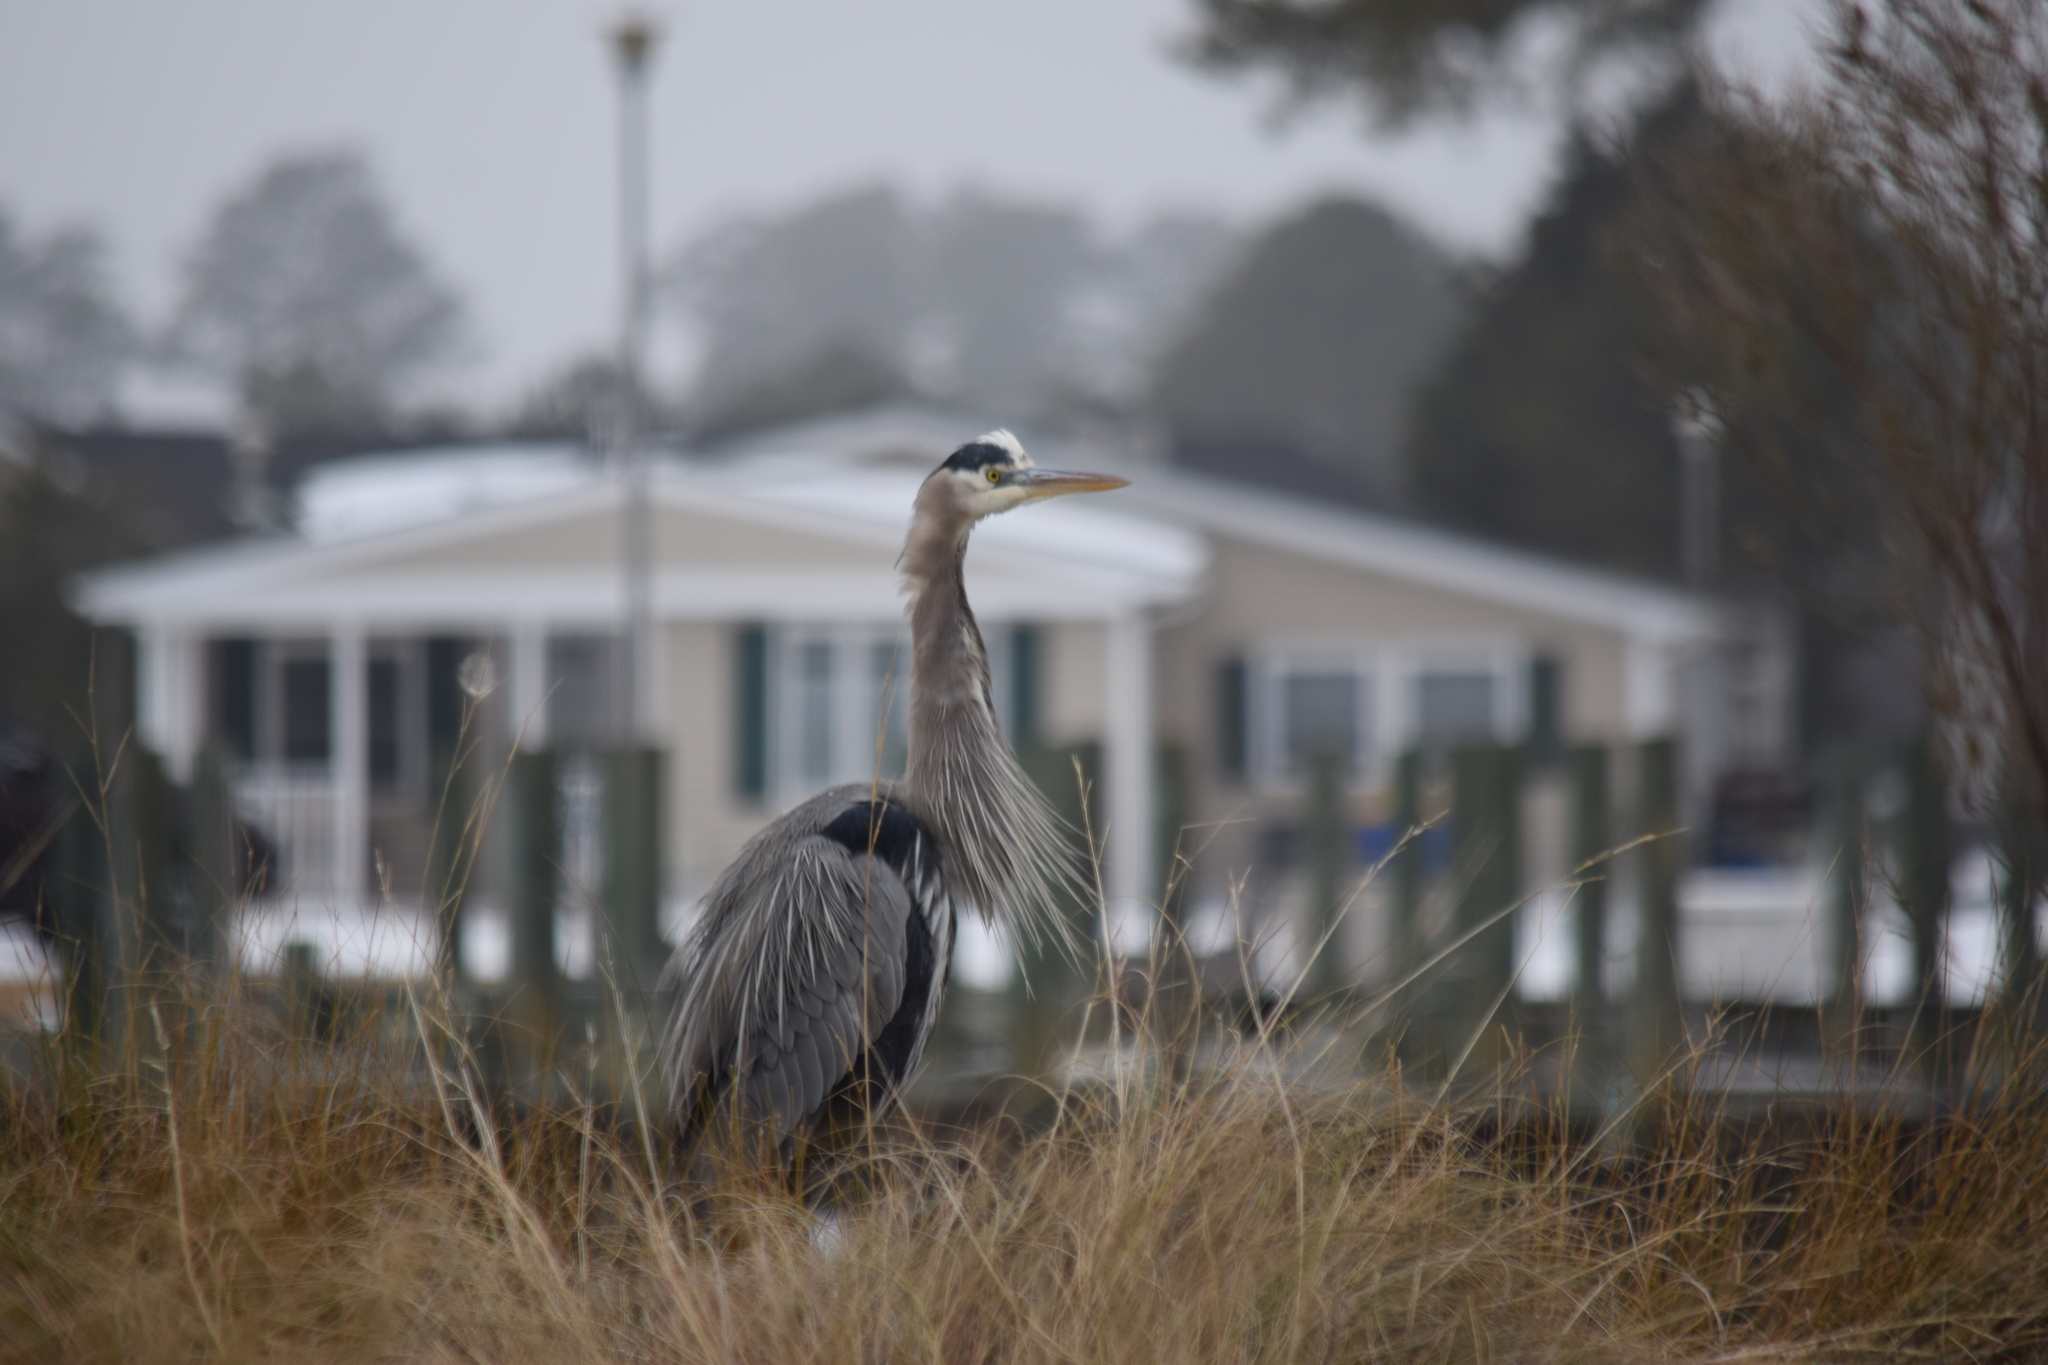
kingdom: Animalia
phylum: Chordata
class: Aves
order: Pelecaniformes
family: Ardeidae
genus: Ardea
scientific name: Ardea herodias
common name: Great blue heron
